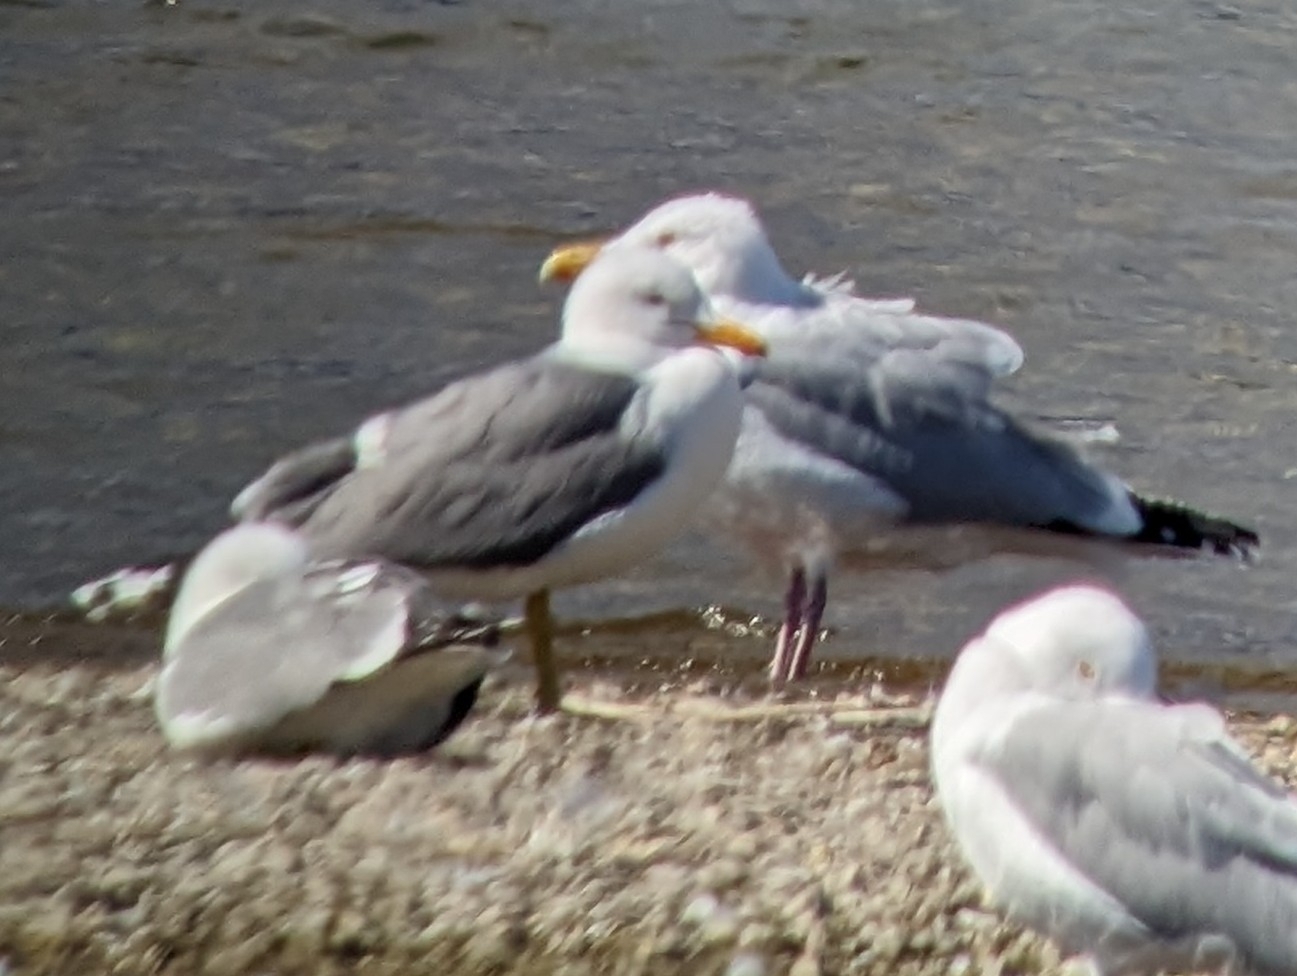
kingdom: Animalia
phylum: Chordata
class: Aves
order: Charadriiformes
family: Laridae
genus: Larus
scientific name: Larus californicus
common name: California gull
